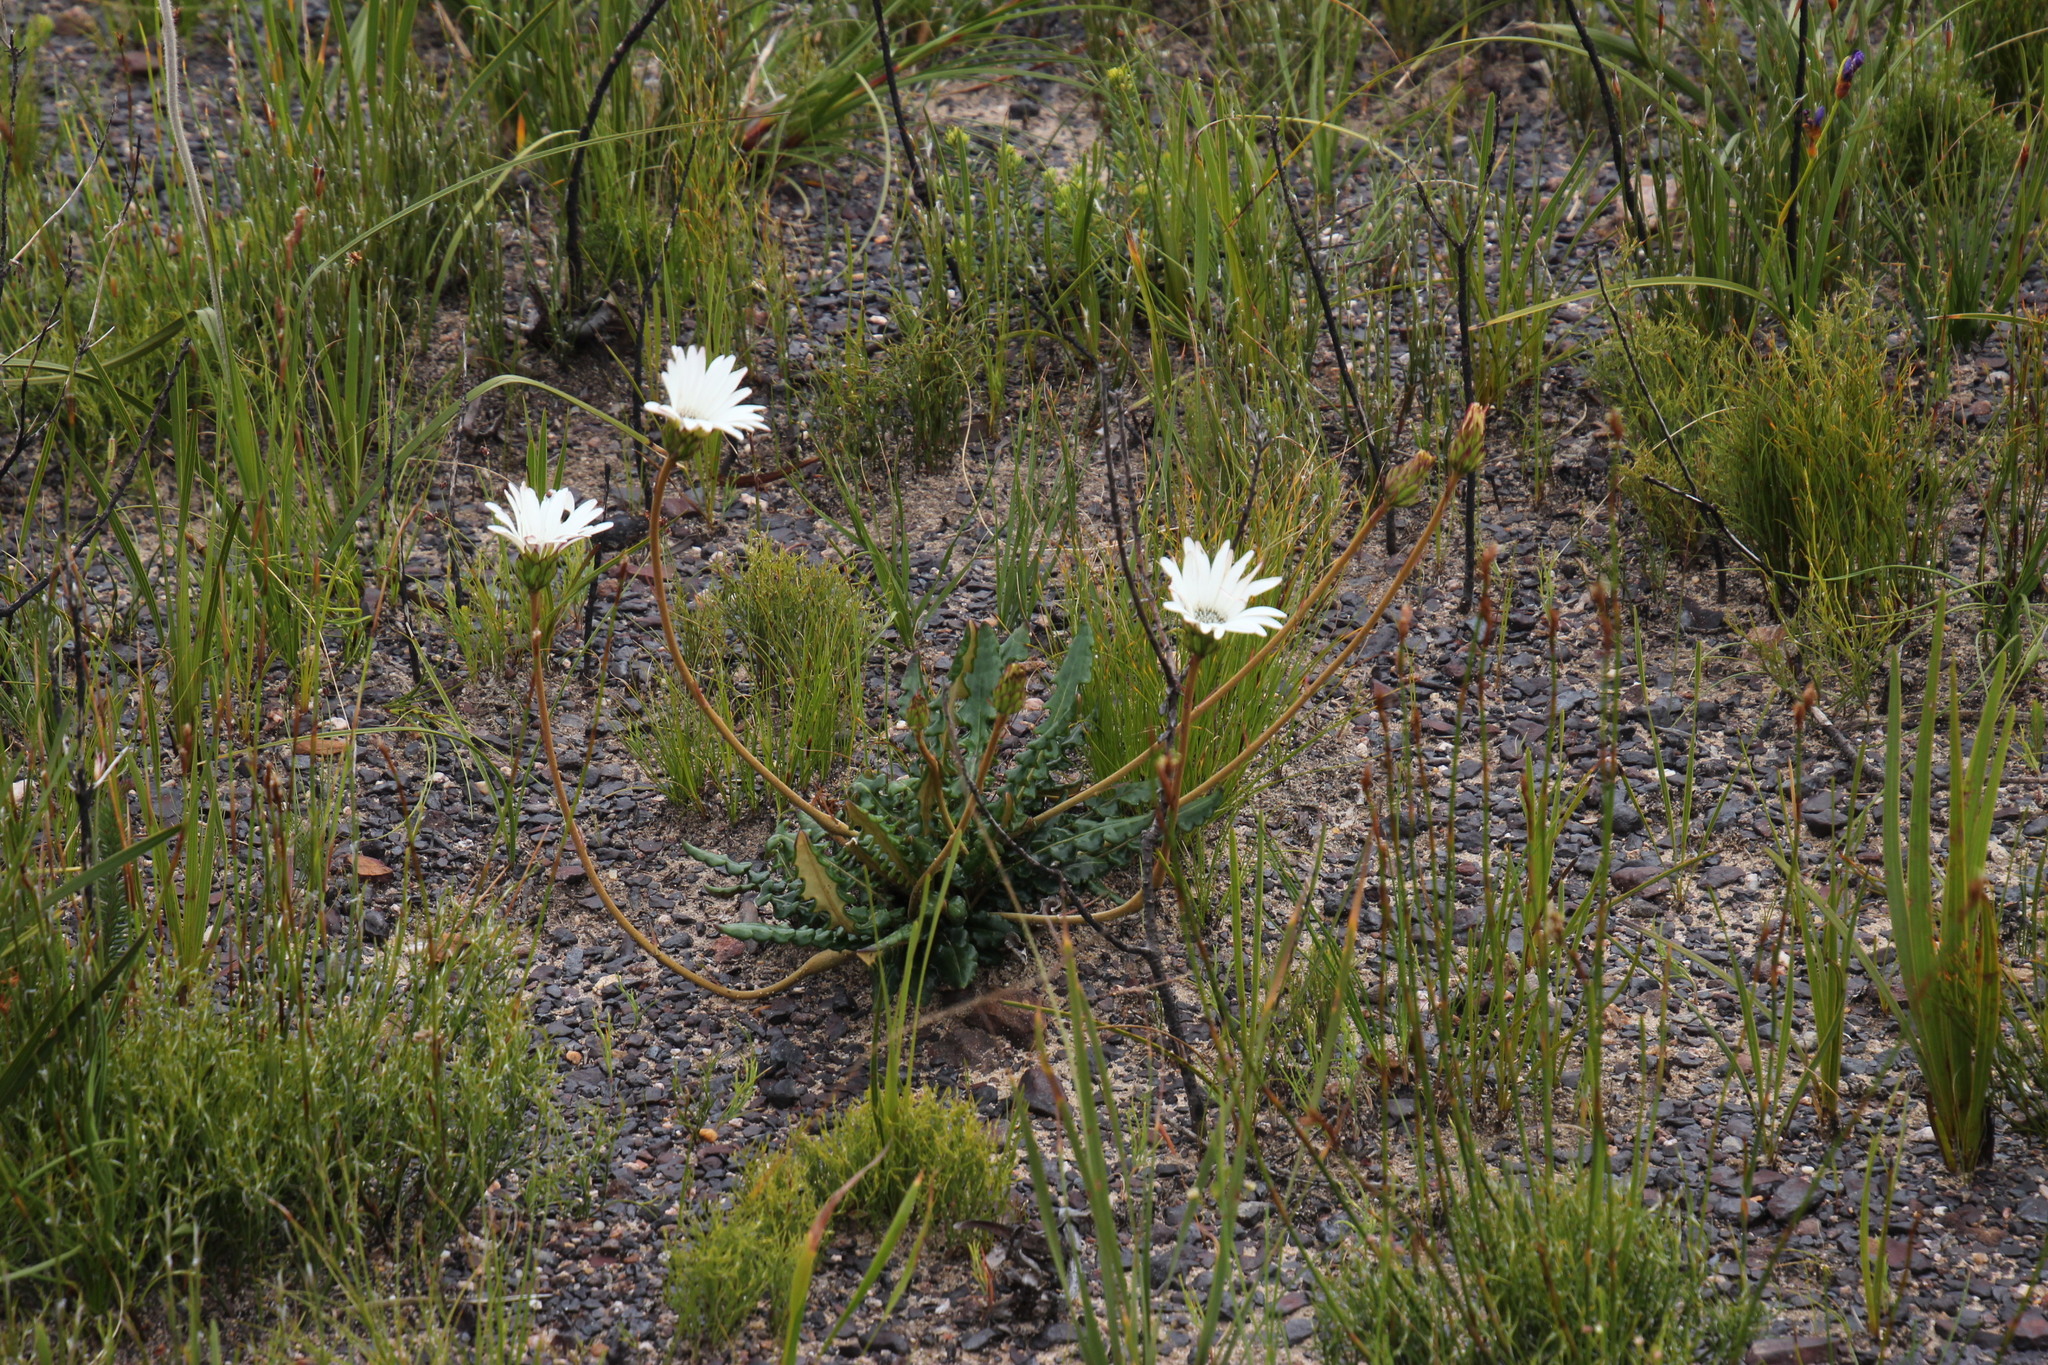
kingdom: Plantae
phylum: Tracheophyta
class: Magnoliopsida
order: Asterales
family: Asteraceae
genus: Gerbera
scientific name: Gerbera linnaei
